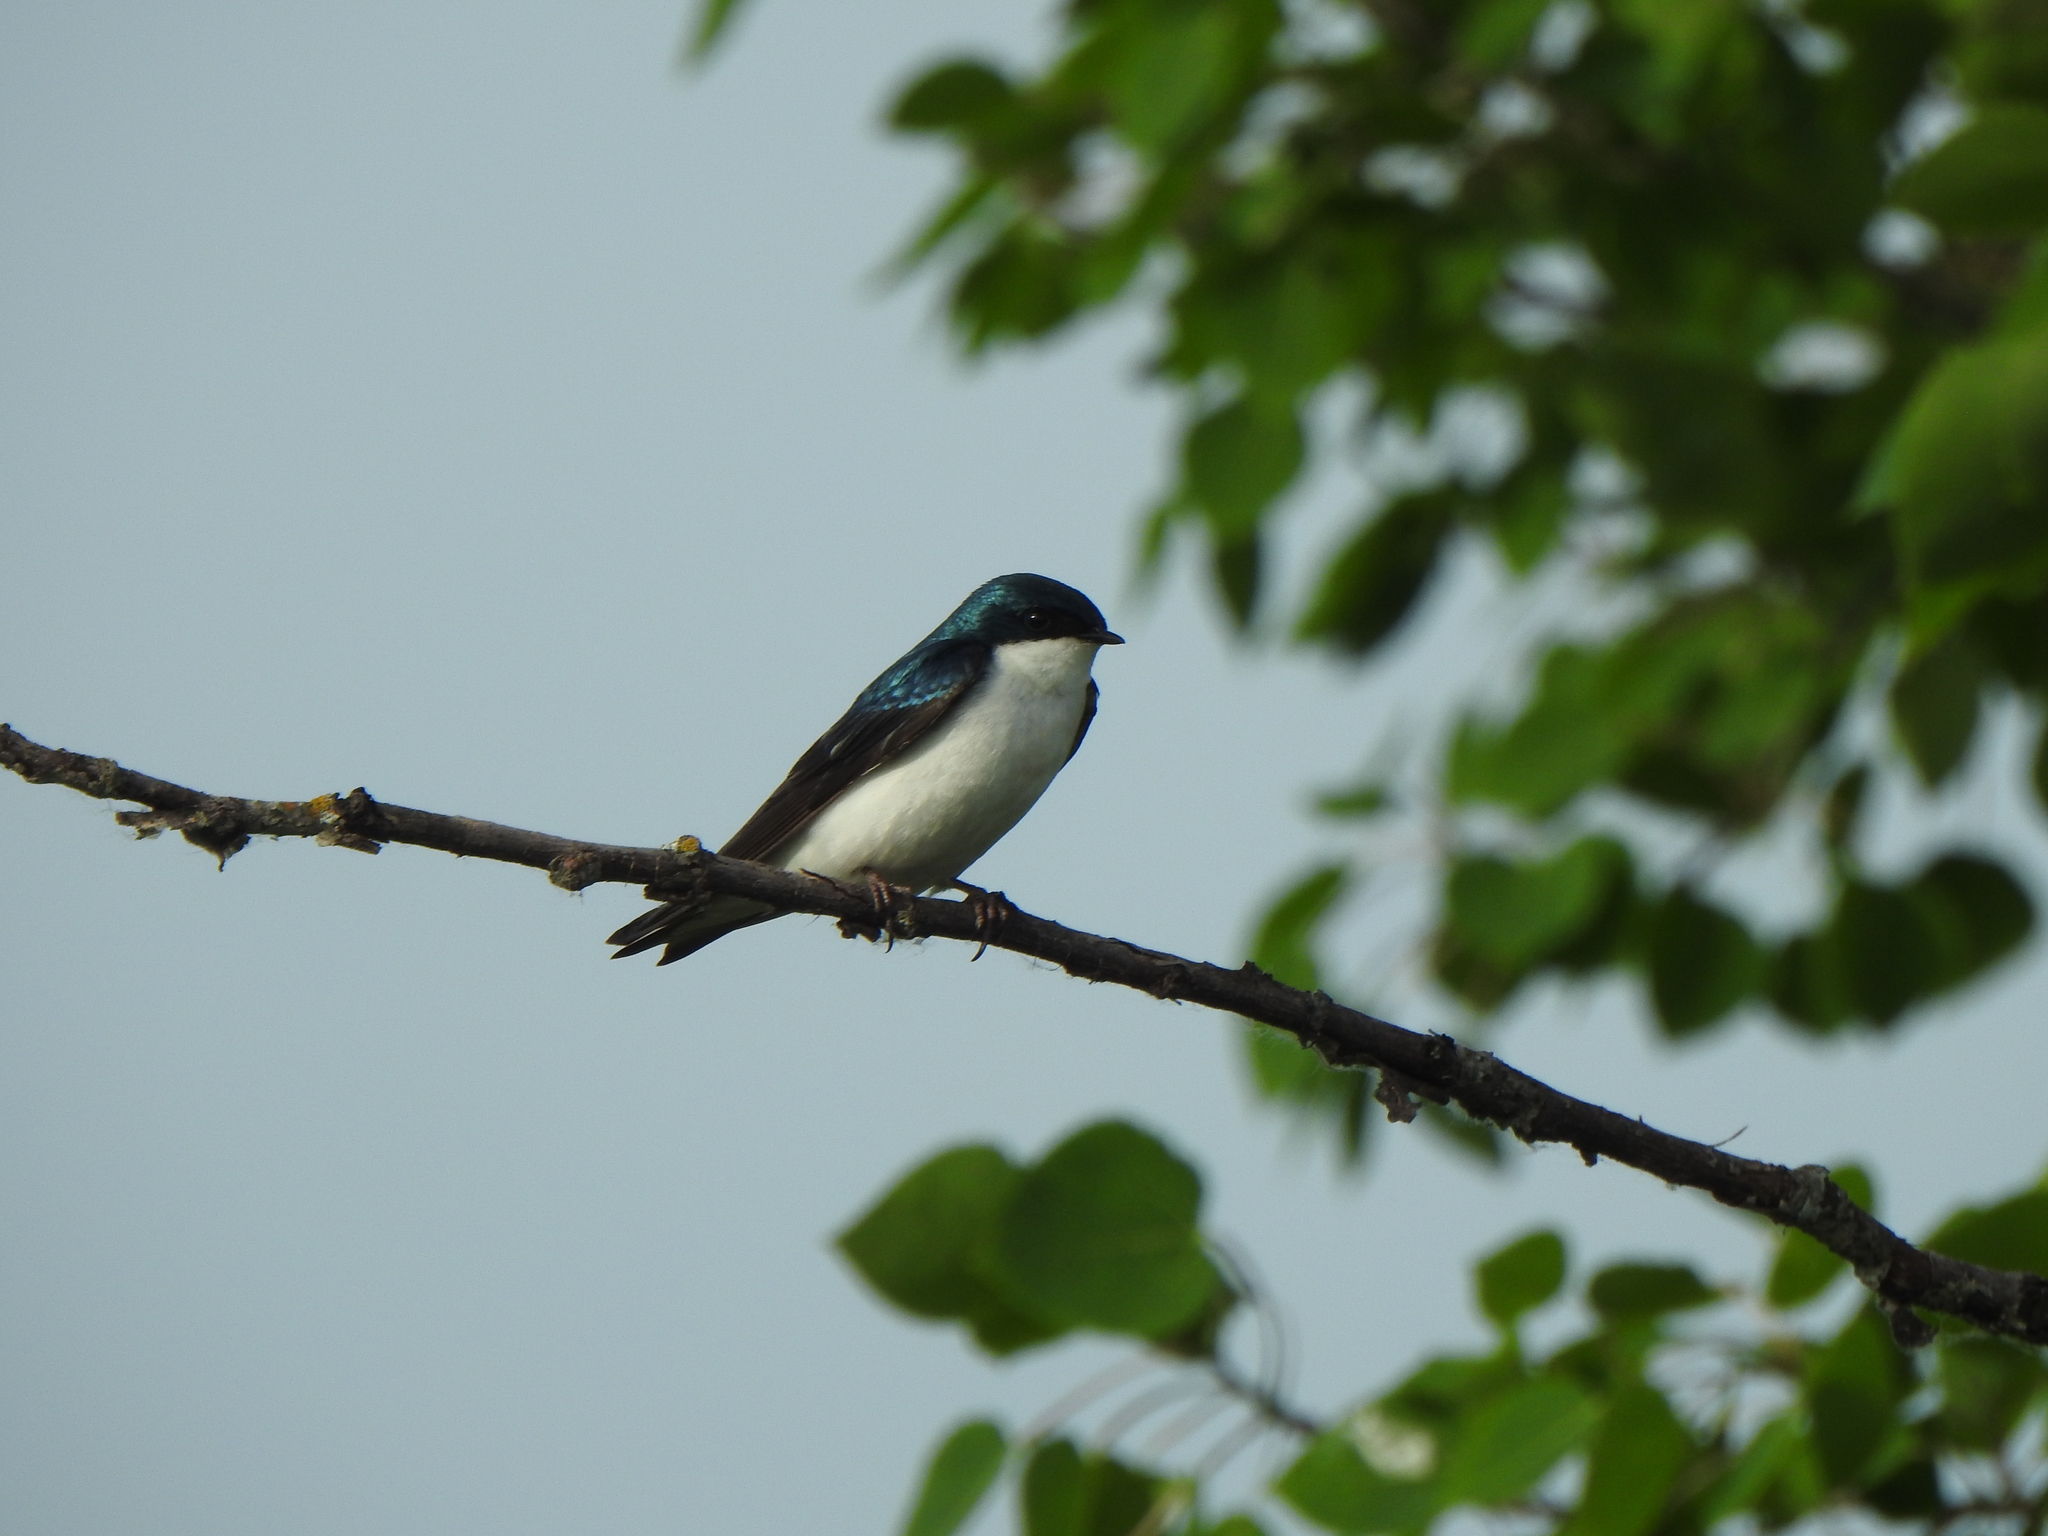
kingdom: Animalia
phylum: Chordata
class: Aves
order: Passeriformes
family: Hirundinidae
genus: Tachycineta
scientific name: Tachycineta bicolor
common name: Tree swallow
